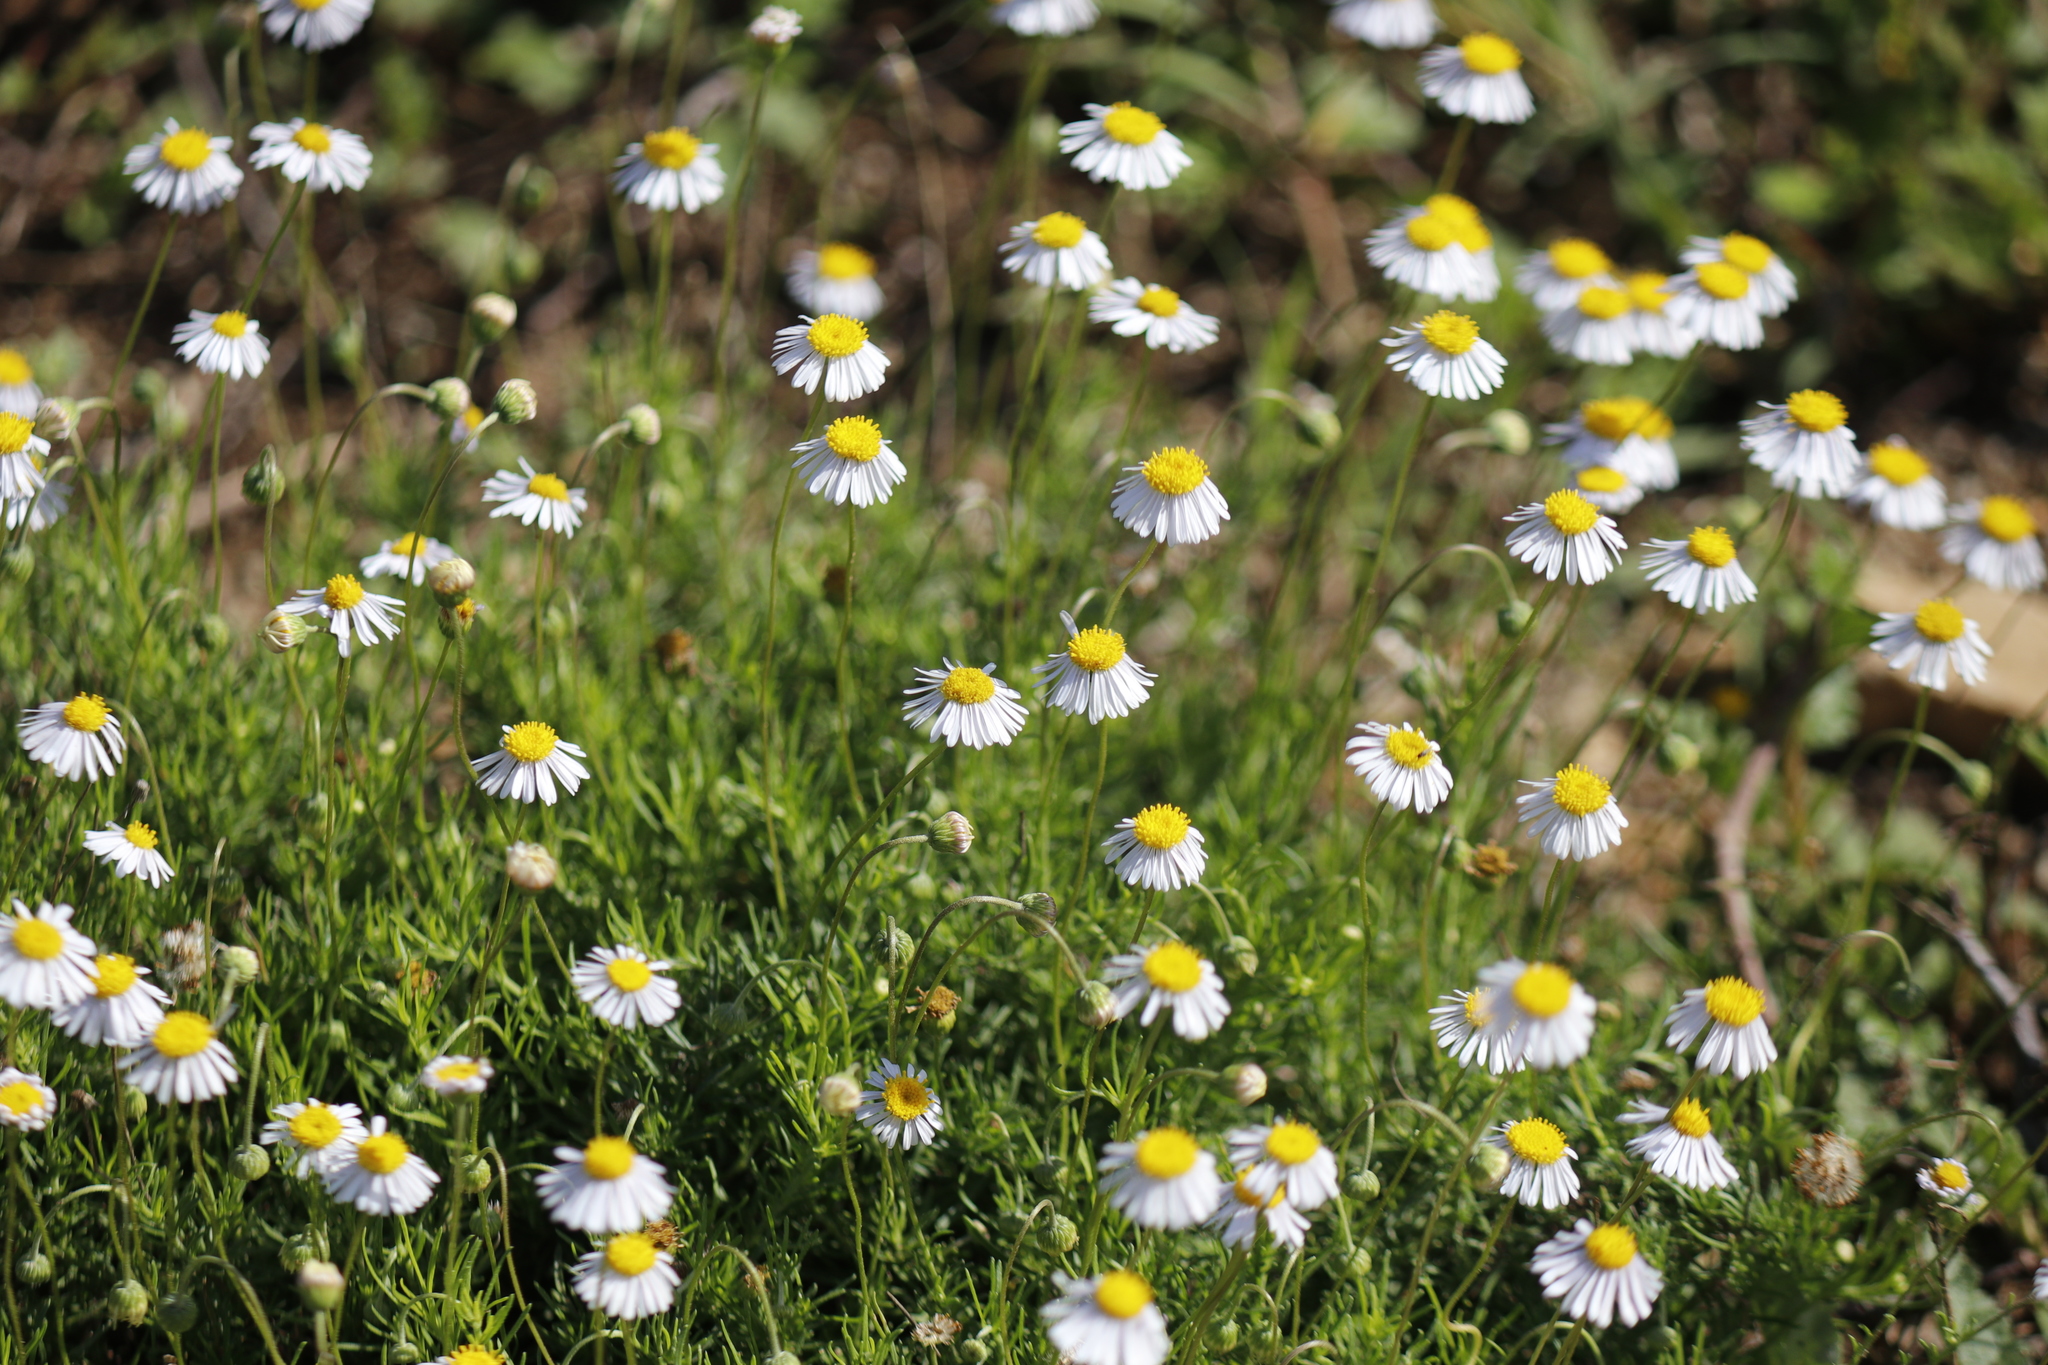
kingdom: Plantae
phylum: Tracheophyta
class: Magnoliopsida
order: Asterales
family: Asteraceae
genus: Felicia
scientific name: Felicia muricata
